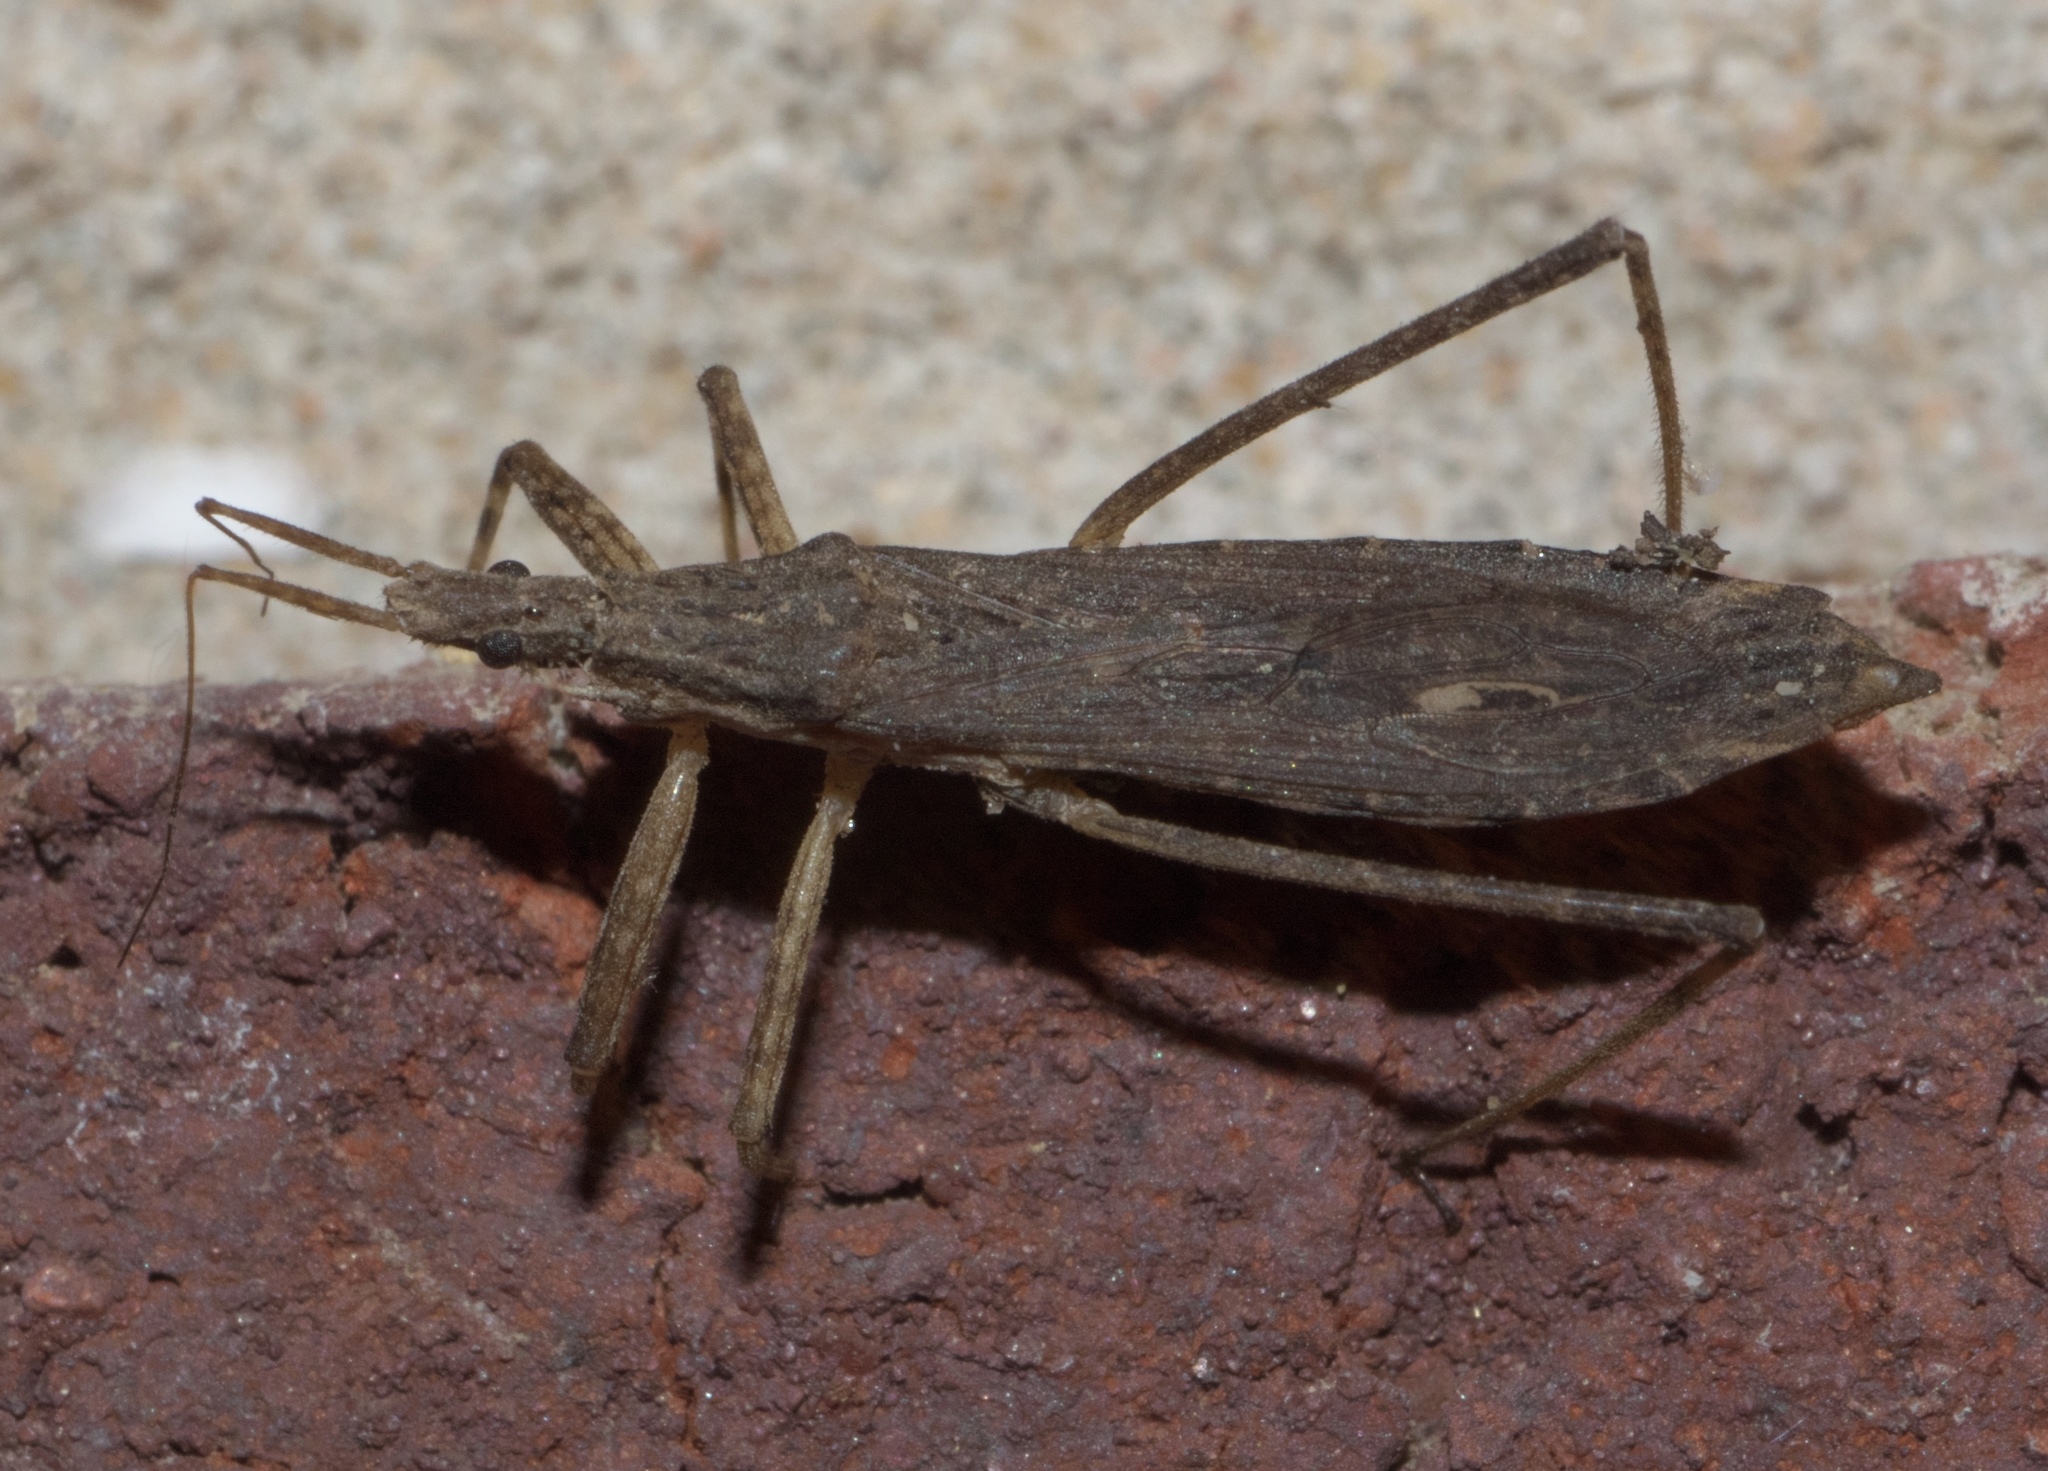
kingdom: Animalia
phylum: Arthropoda
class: Insecta
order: Hemiptera
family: Reduviidae
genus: Pygolampis
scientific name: Pygolampis pectoralis
